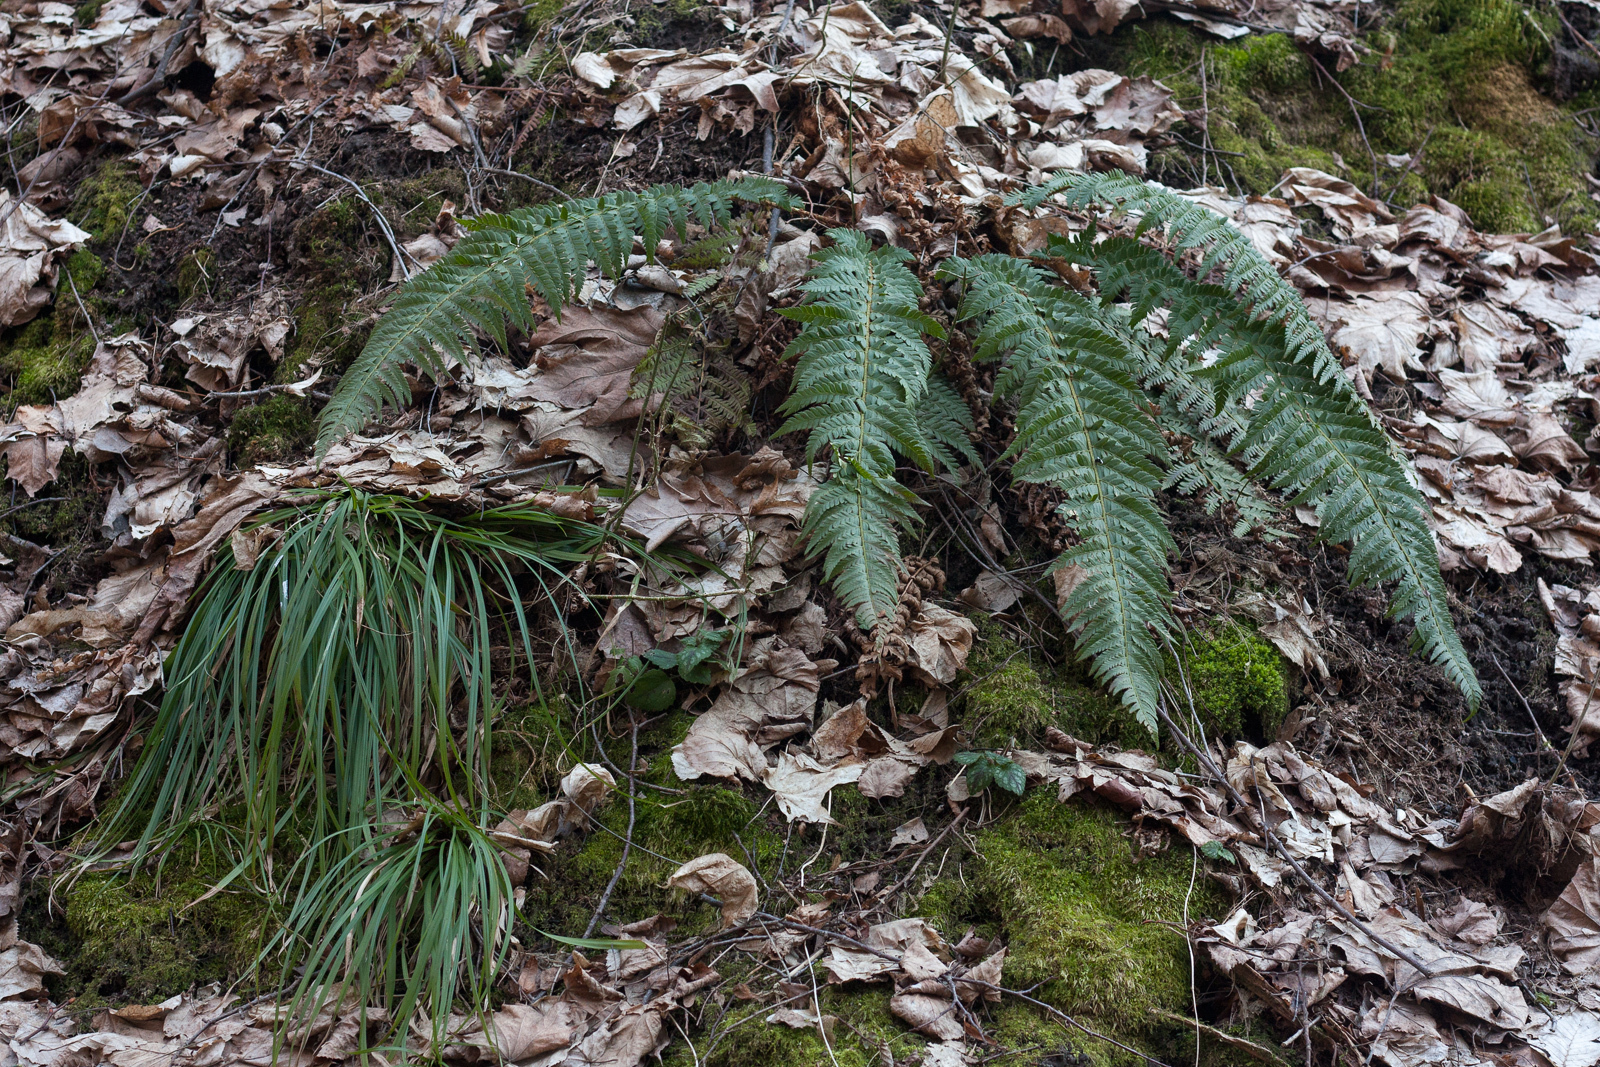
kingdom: Plantae
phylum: Tracheophyta
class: Polypodiopsida
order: Polypodiales
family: Dryopteridaceae
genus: Polystichum
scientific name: Polystichum aculeatum
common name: Hard shield-fern
